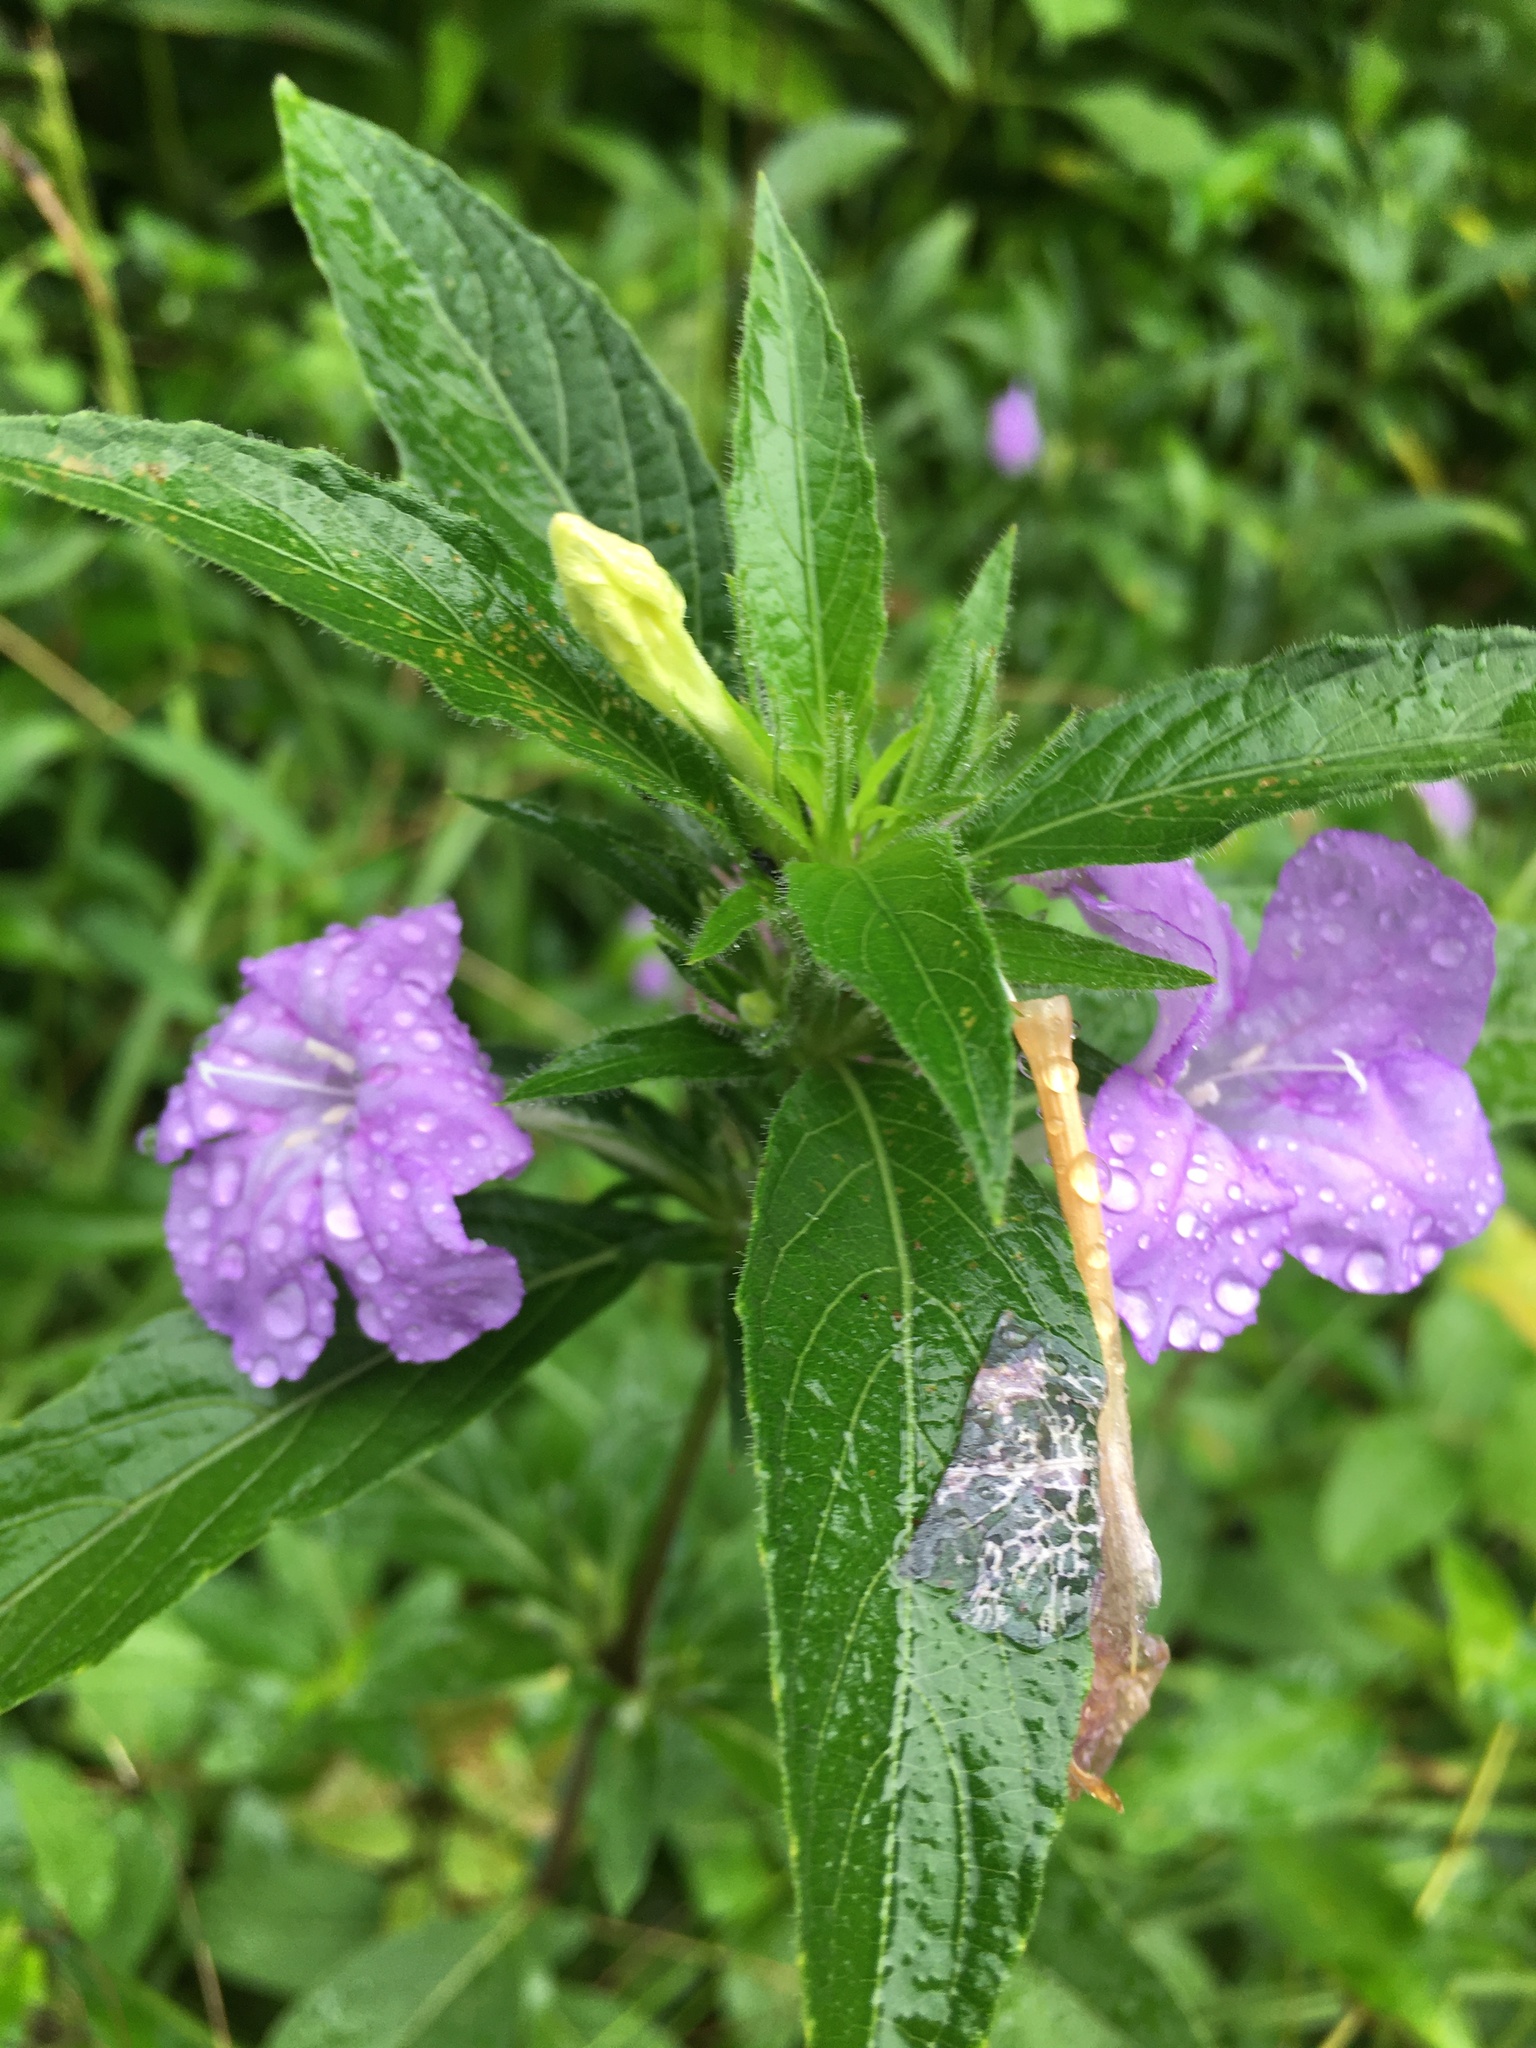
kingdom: Plantae
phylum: Tracheophyta
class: Magnoliopsida
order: Lamiales
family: Acanthaceae
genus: Ruellia
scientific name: Ruellia caroliniensis
